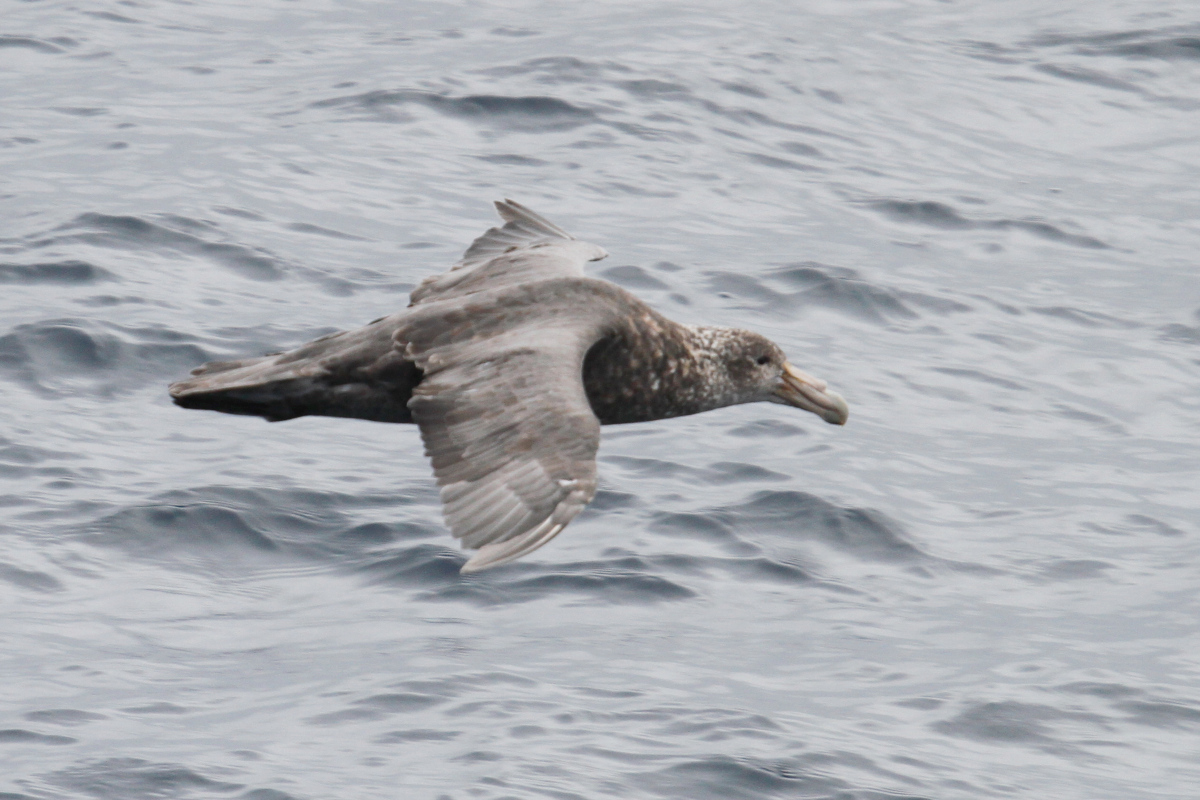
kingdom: Animalia
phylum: Chordata
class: Aves
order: Procellariiformes
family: Procellariidae
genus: Macronectes
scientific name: Macronectes giganteus
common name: Southern giant petrel
